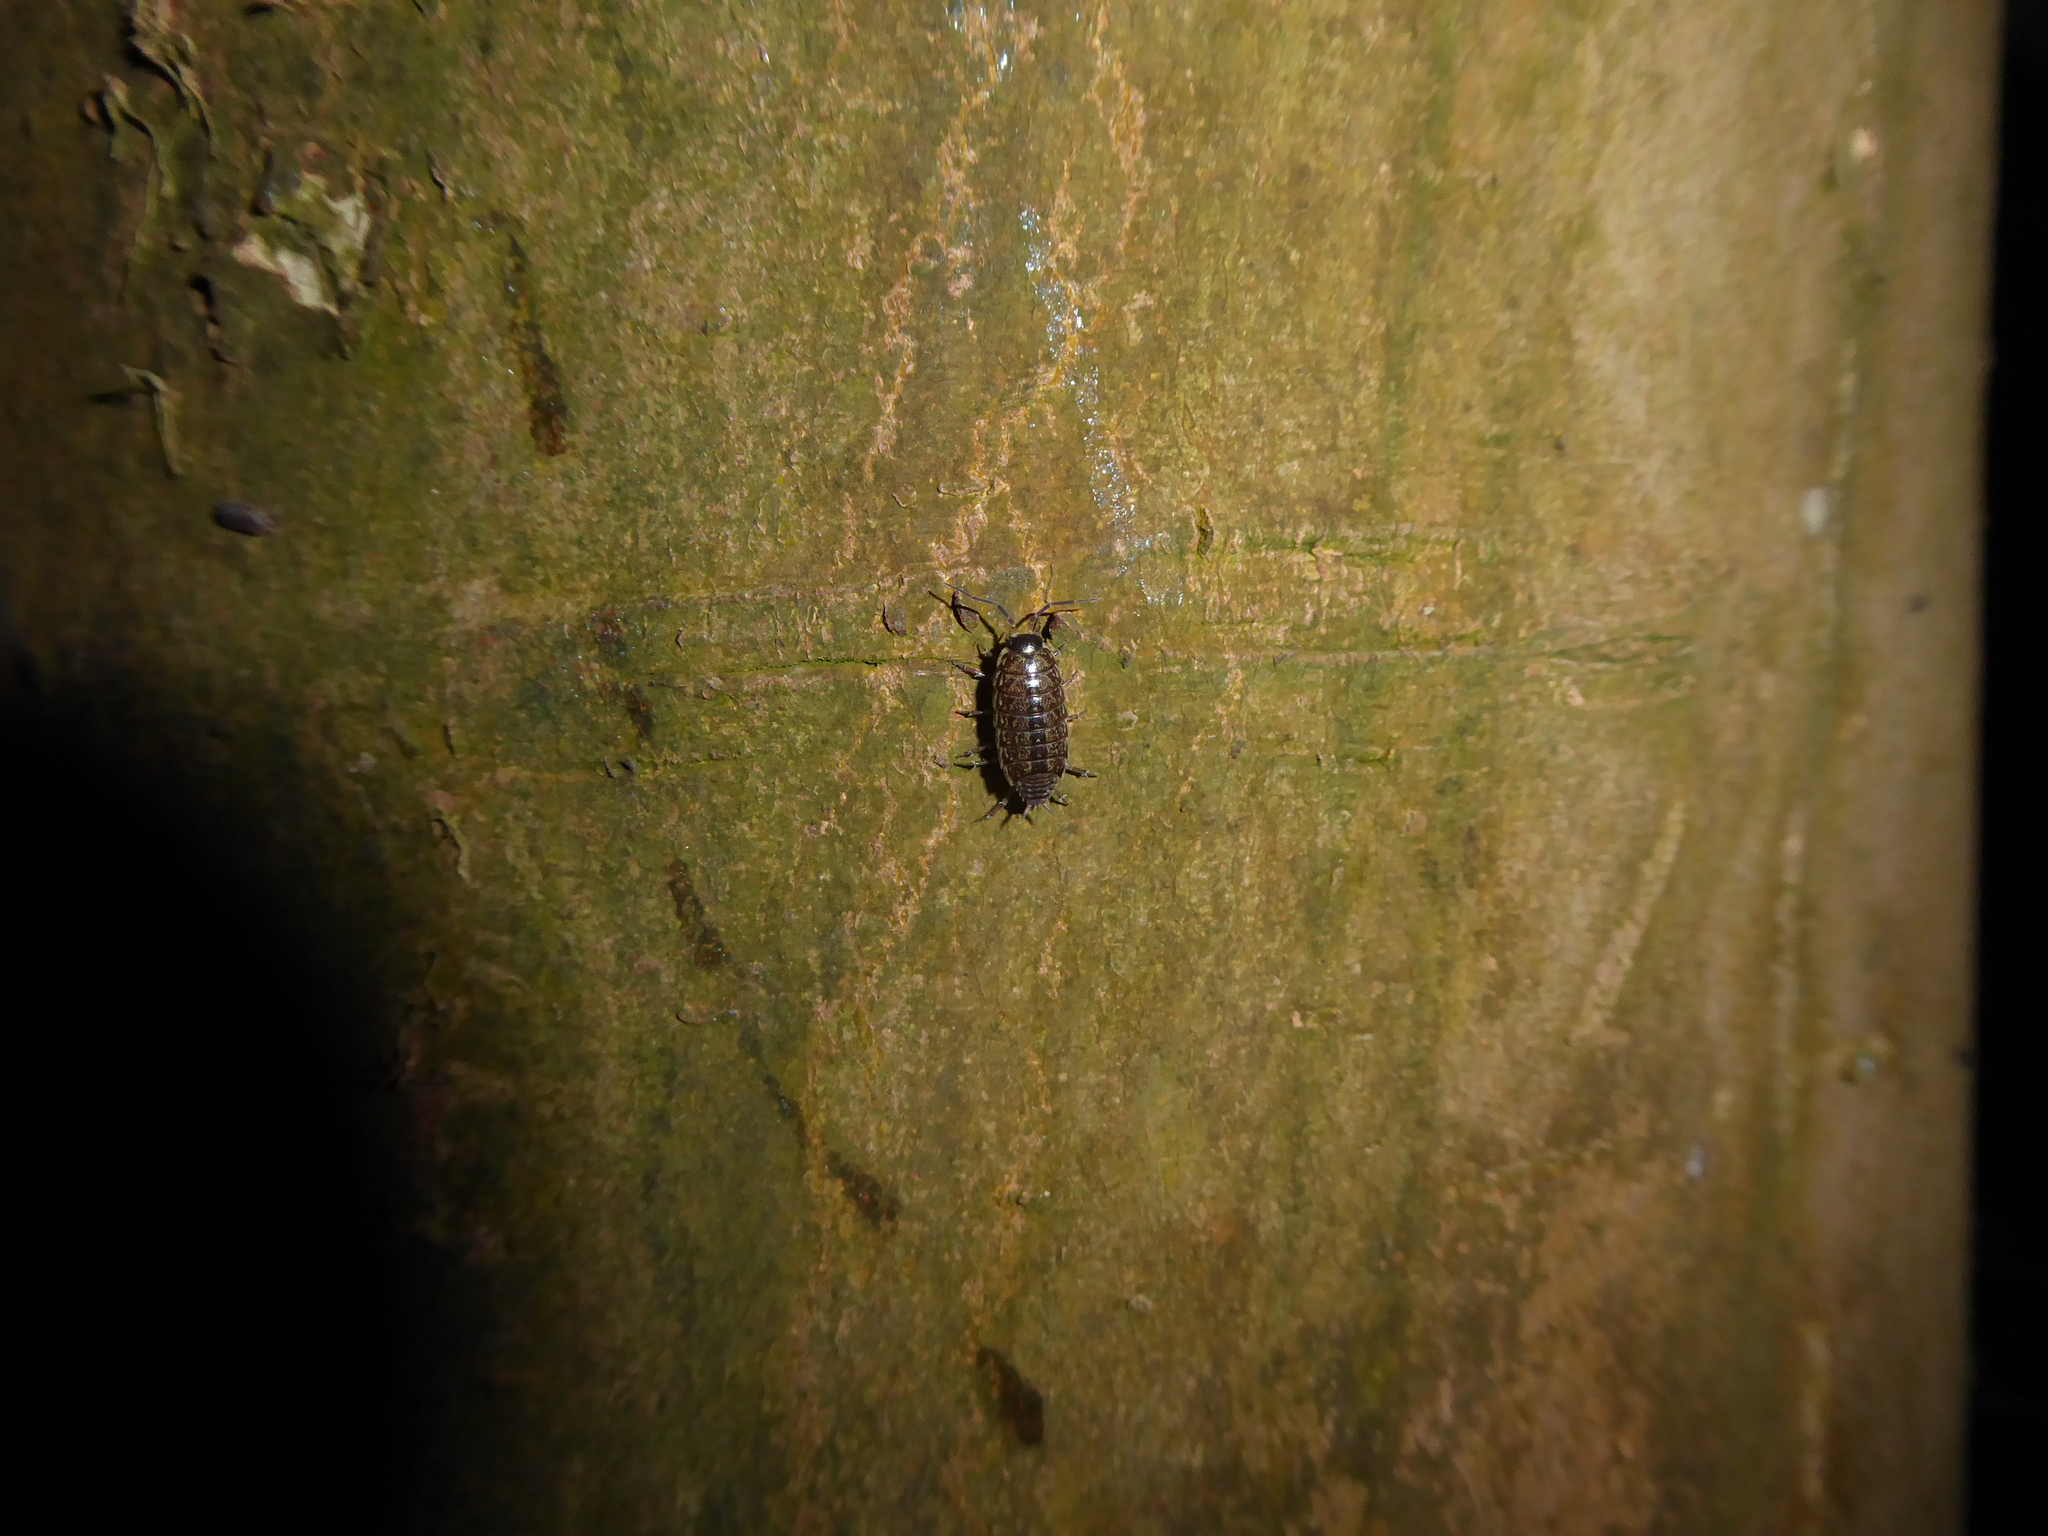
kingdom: Animalia
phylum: Arthropoda
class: Malacostraca
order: Isopoda
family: Philosciidae
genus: Philoscia
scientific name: Philoscia muscorum
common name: Common striped woodlouse
